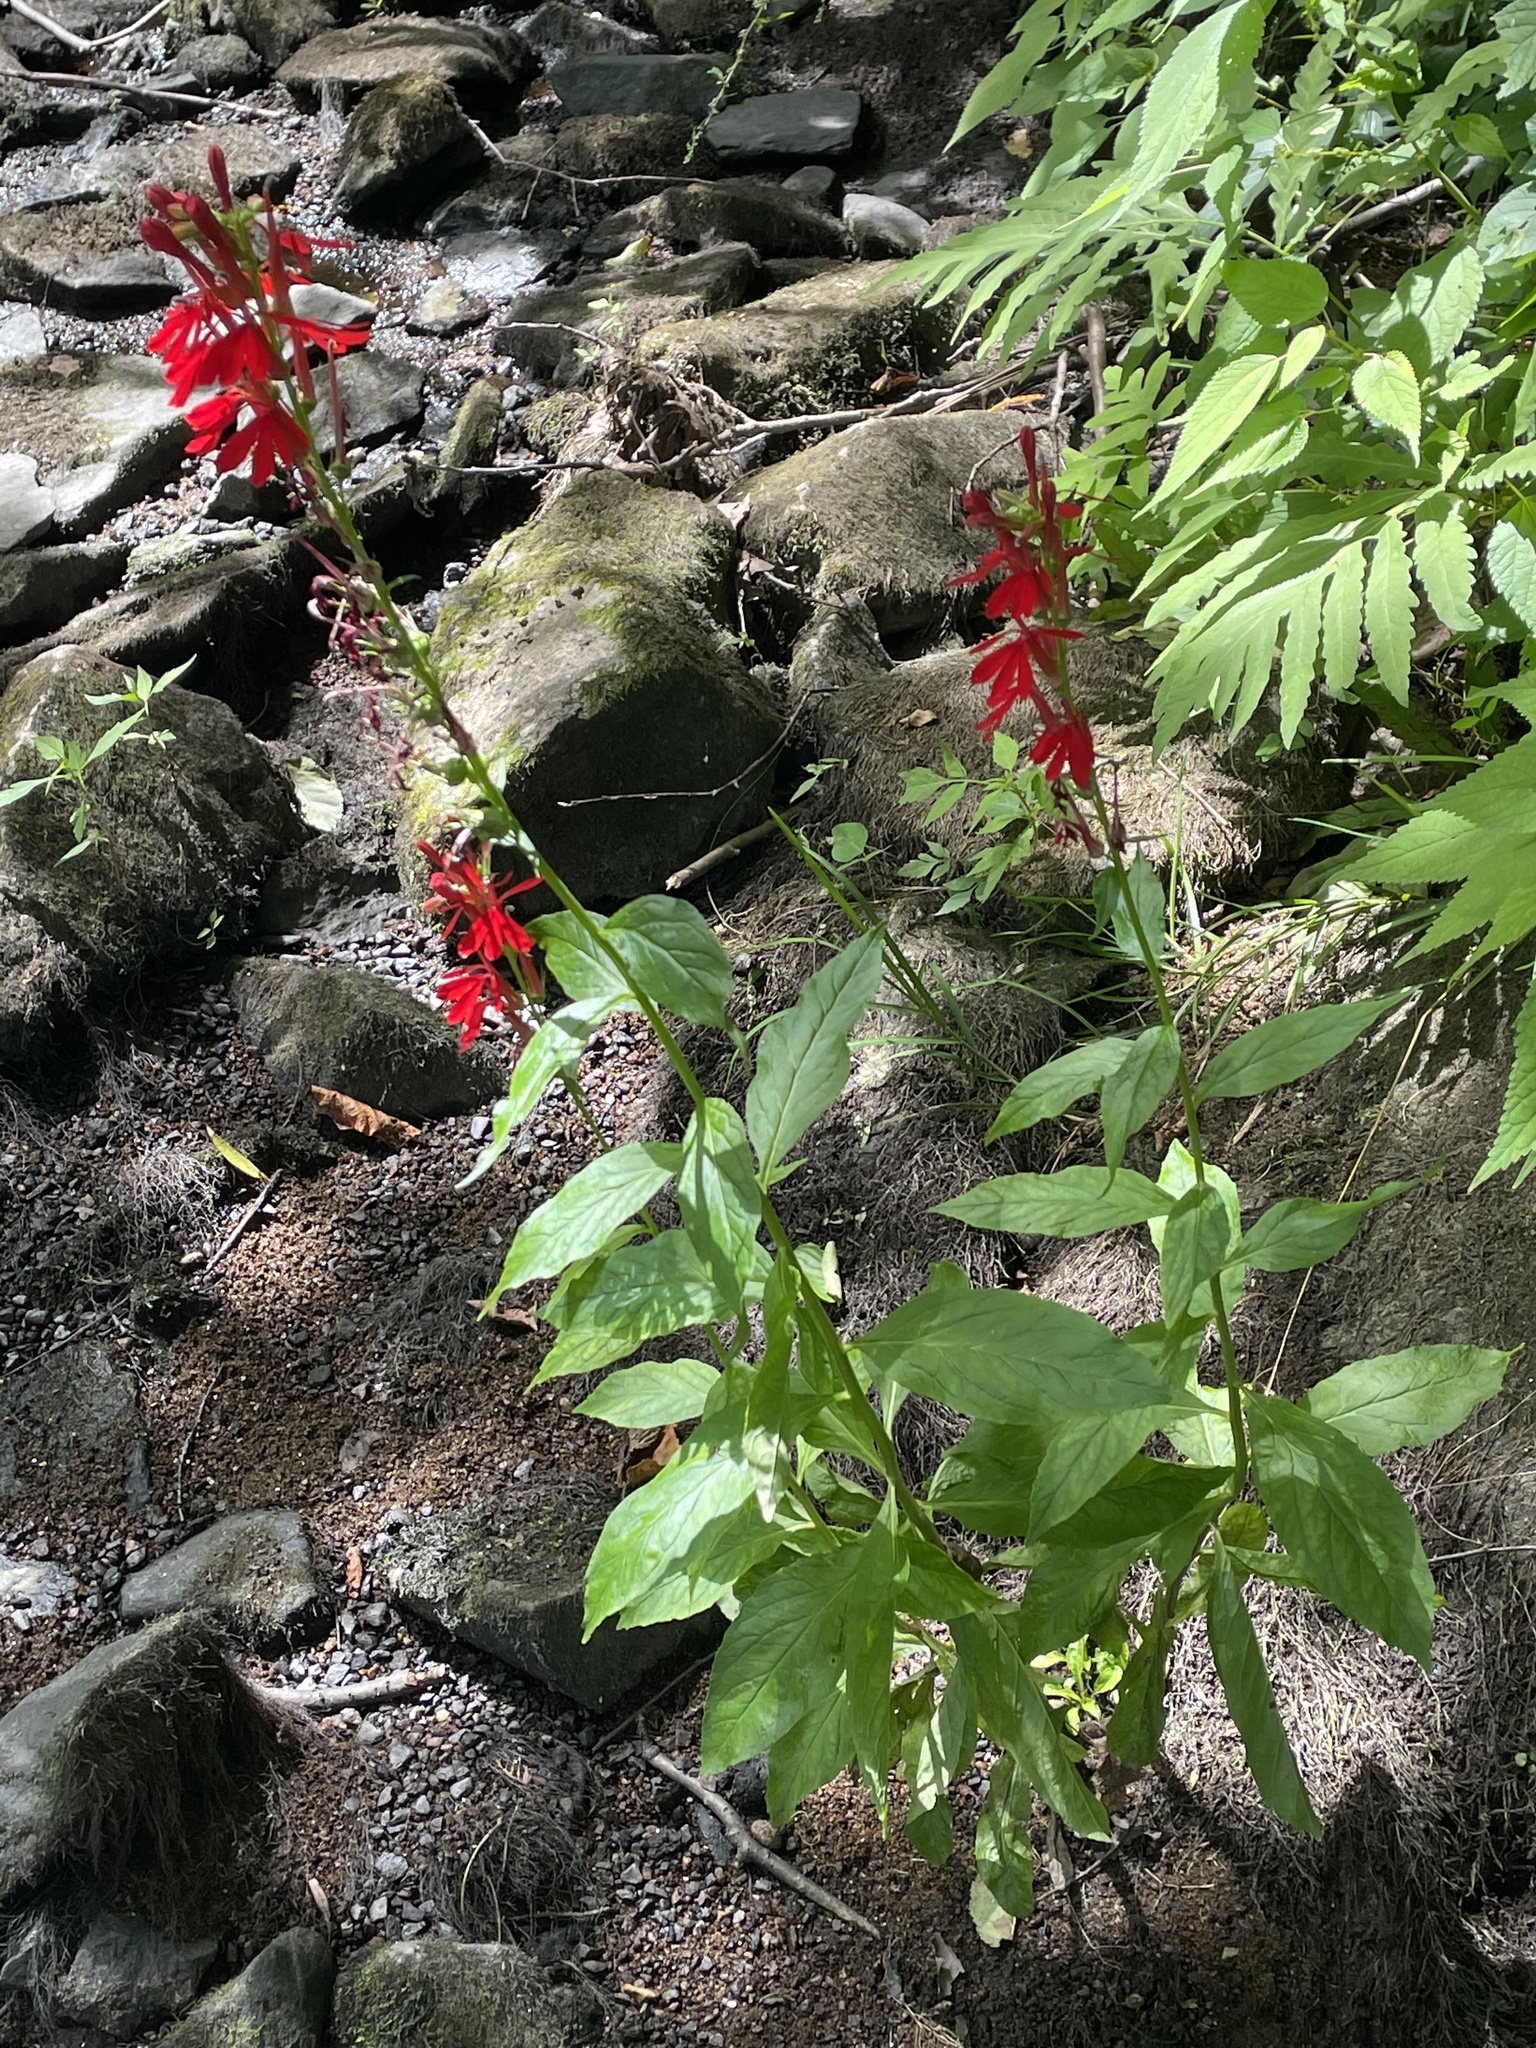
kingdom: Plantae
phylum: Tracheophyta
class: Magnoliopsida
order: Asterales
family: Campanulaceae
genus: Lobelia
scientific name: Lobelia cardinalis
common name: Cardinal flower
